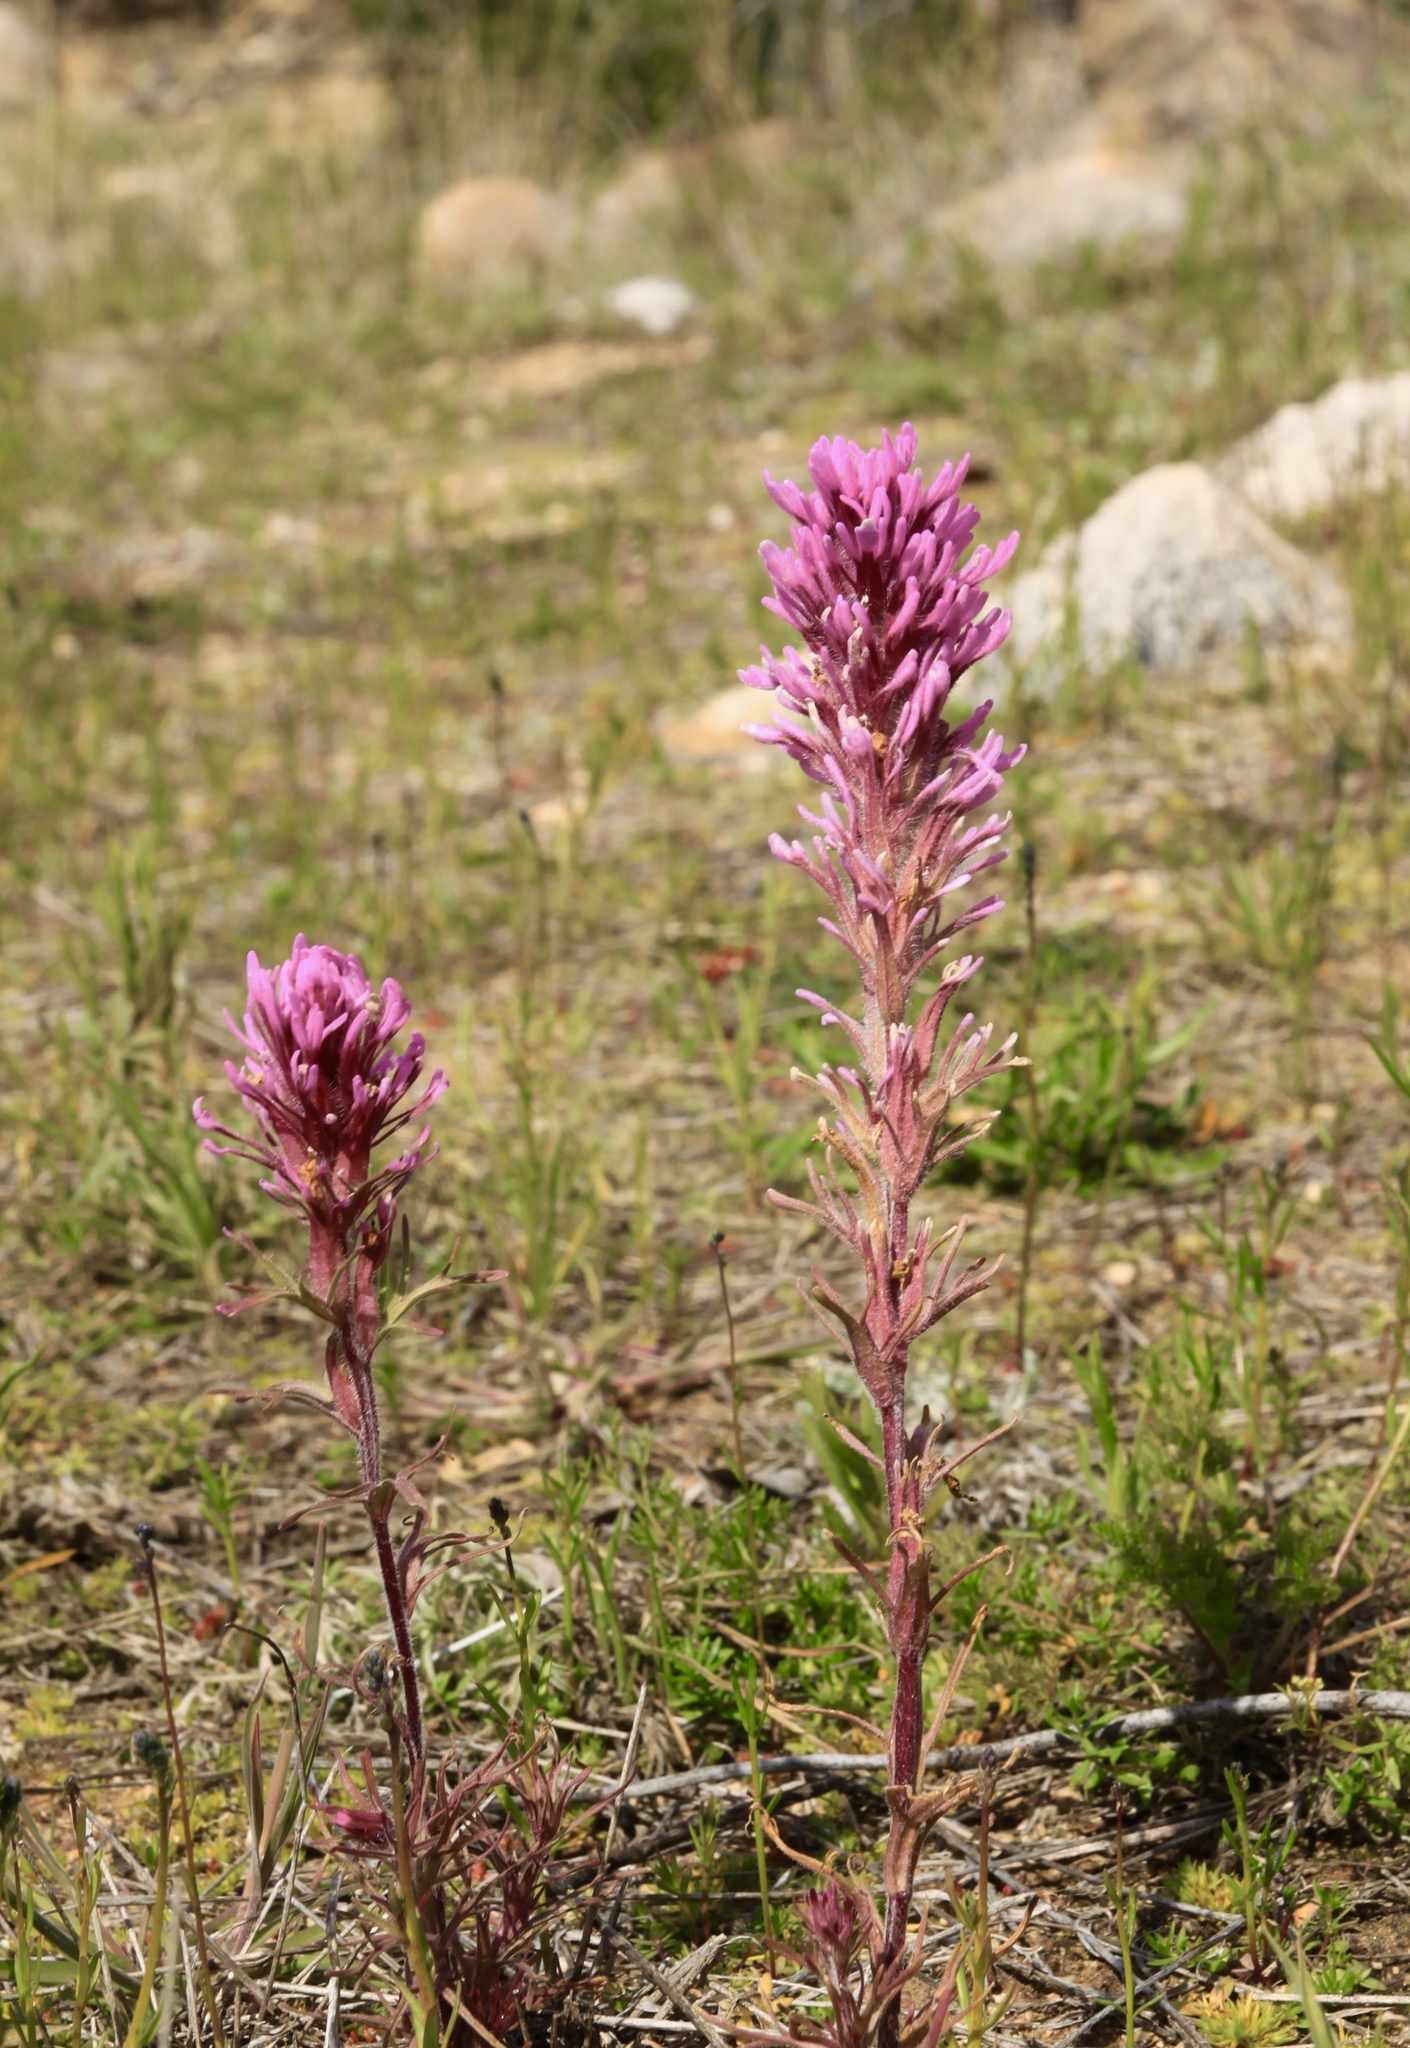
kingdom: Plantae
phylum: Tracheophyta
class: Magnoliopsida
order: Lamiales
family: Orobanchaceae
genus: Castilleja
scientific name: Castilleja exserta
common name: Purple owl-clover
